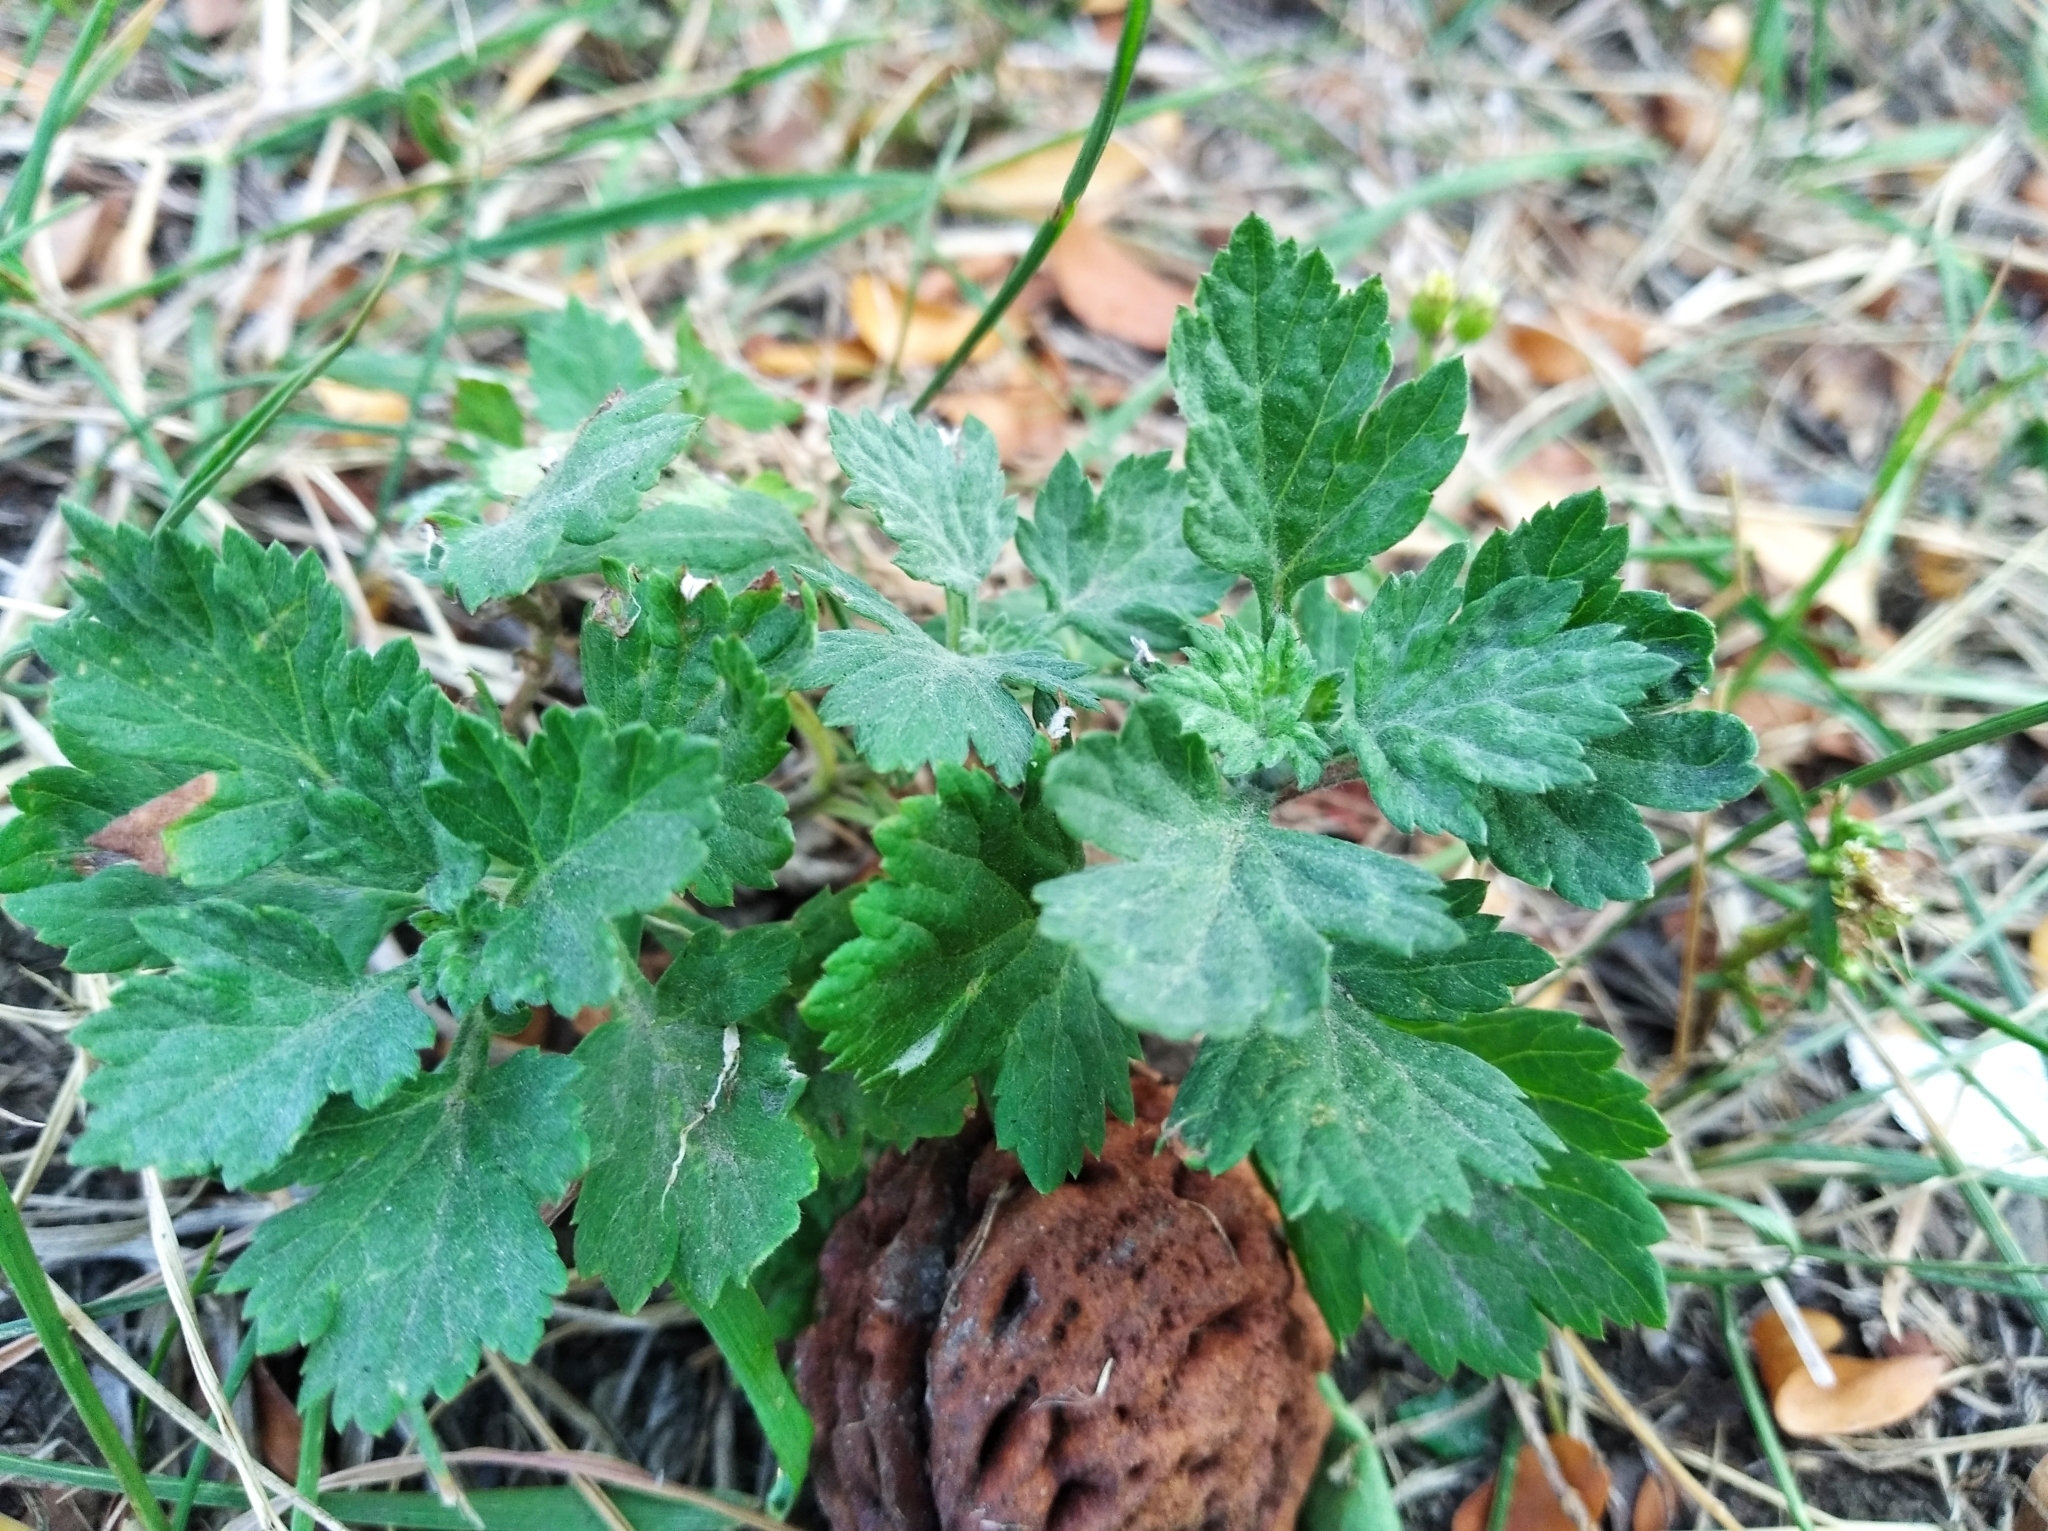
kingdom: Plantae
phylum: Tracheophyta
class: Magnoliopsida
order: Asterales
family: Asteraceae
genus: Artemisia
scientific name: Artemisia vulgaris
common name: Mugwort
